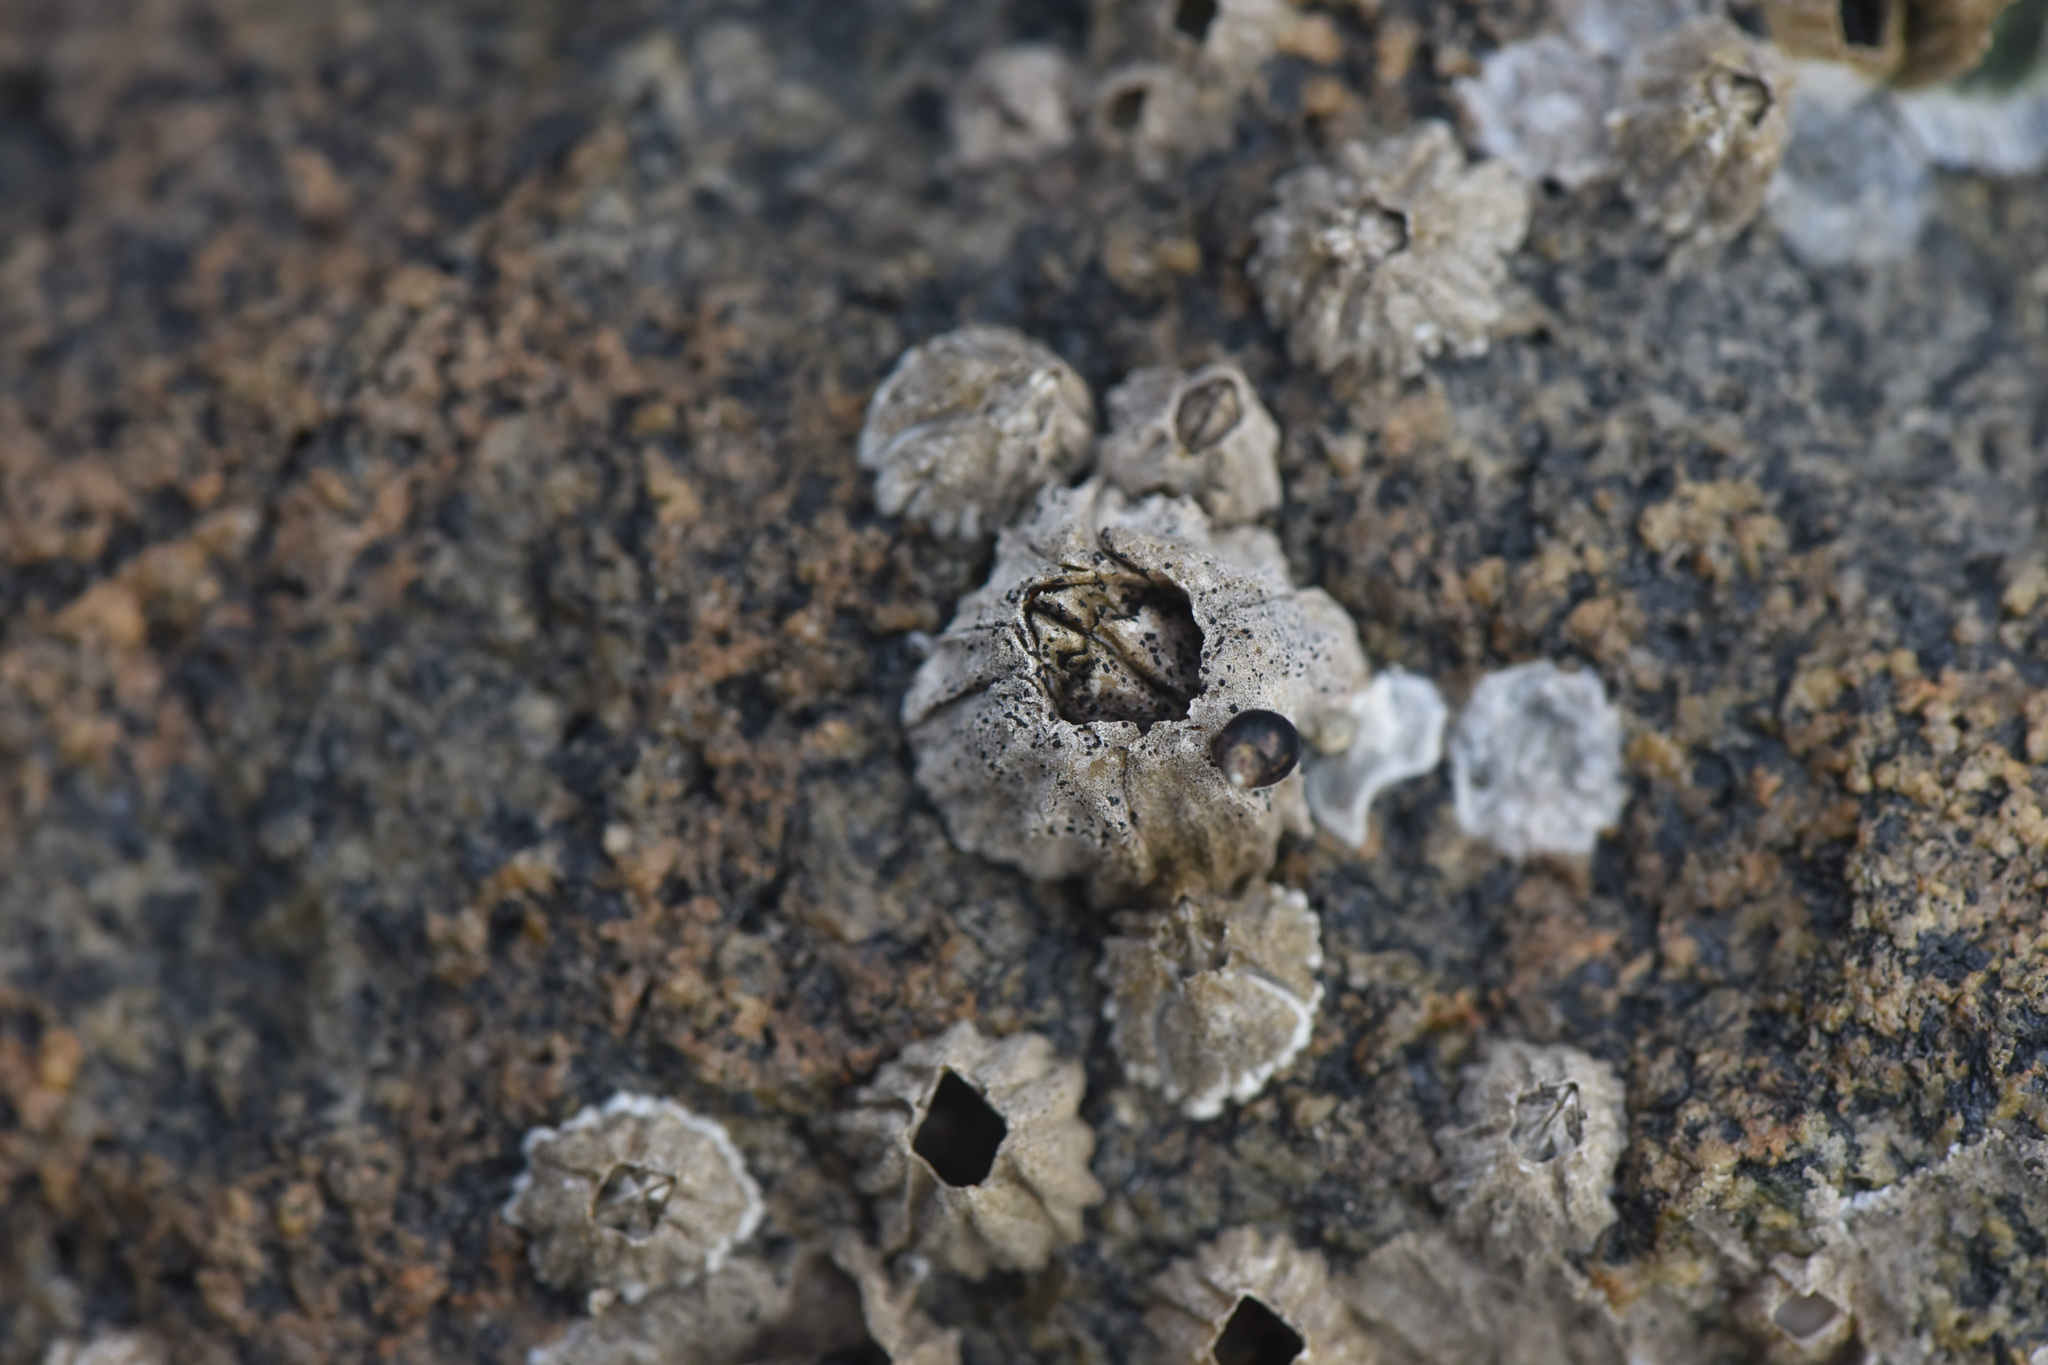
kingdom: Animalia
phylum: Arthropoda
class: Maxillopoda
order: Sessilia
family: Balanidae
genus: Balanus
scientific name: Balanus glandula
